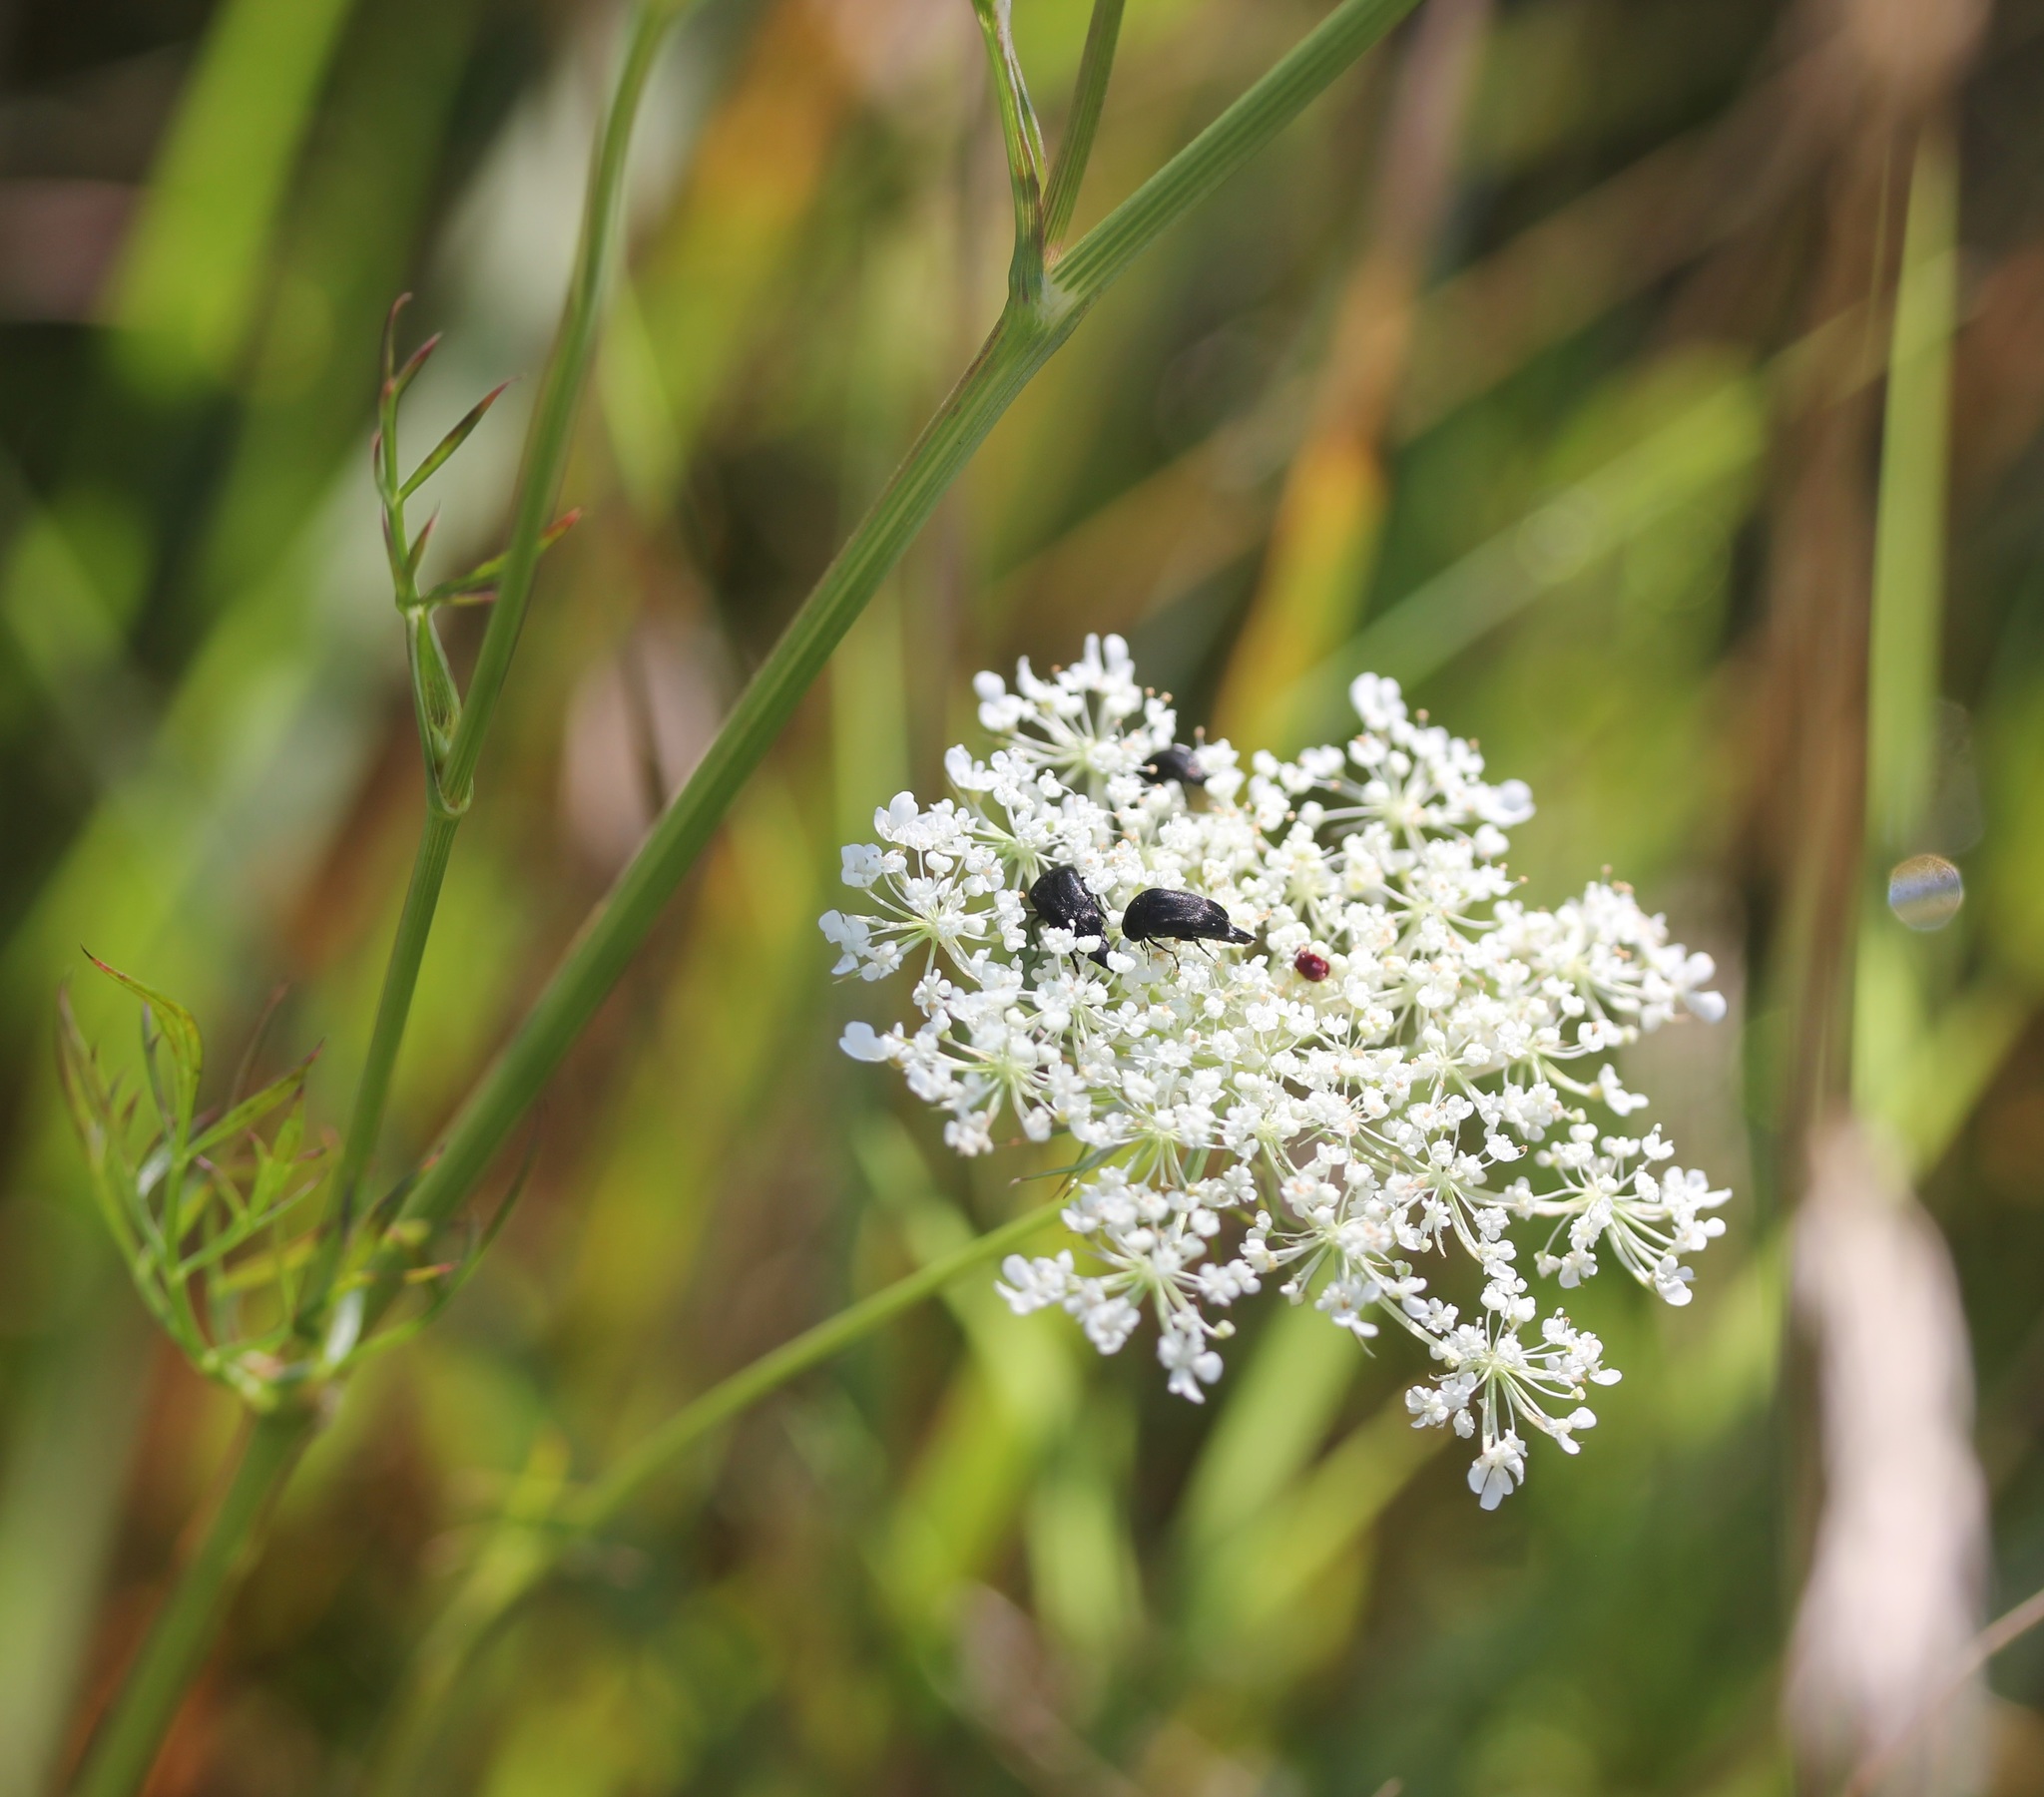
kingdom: Plantae
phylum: Tracheophyta
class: Magnoliopsida
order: Apiales
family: Apiaceae
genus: Daucus
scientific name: Daucus carota
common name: Wild carrot
